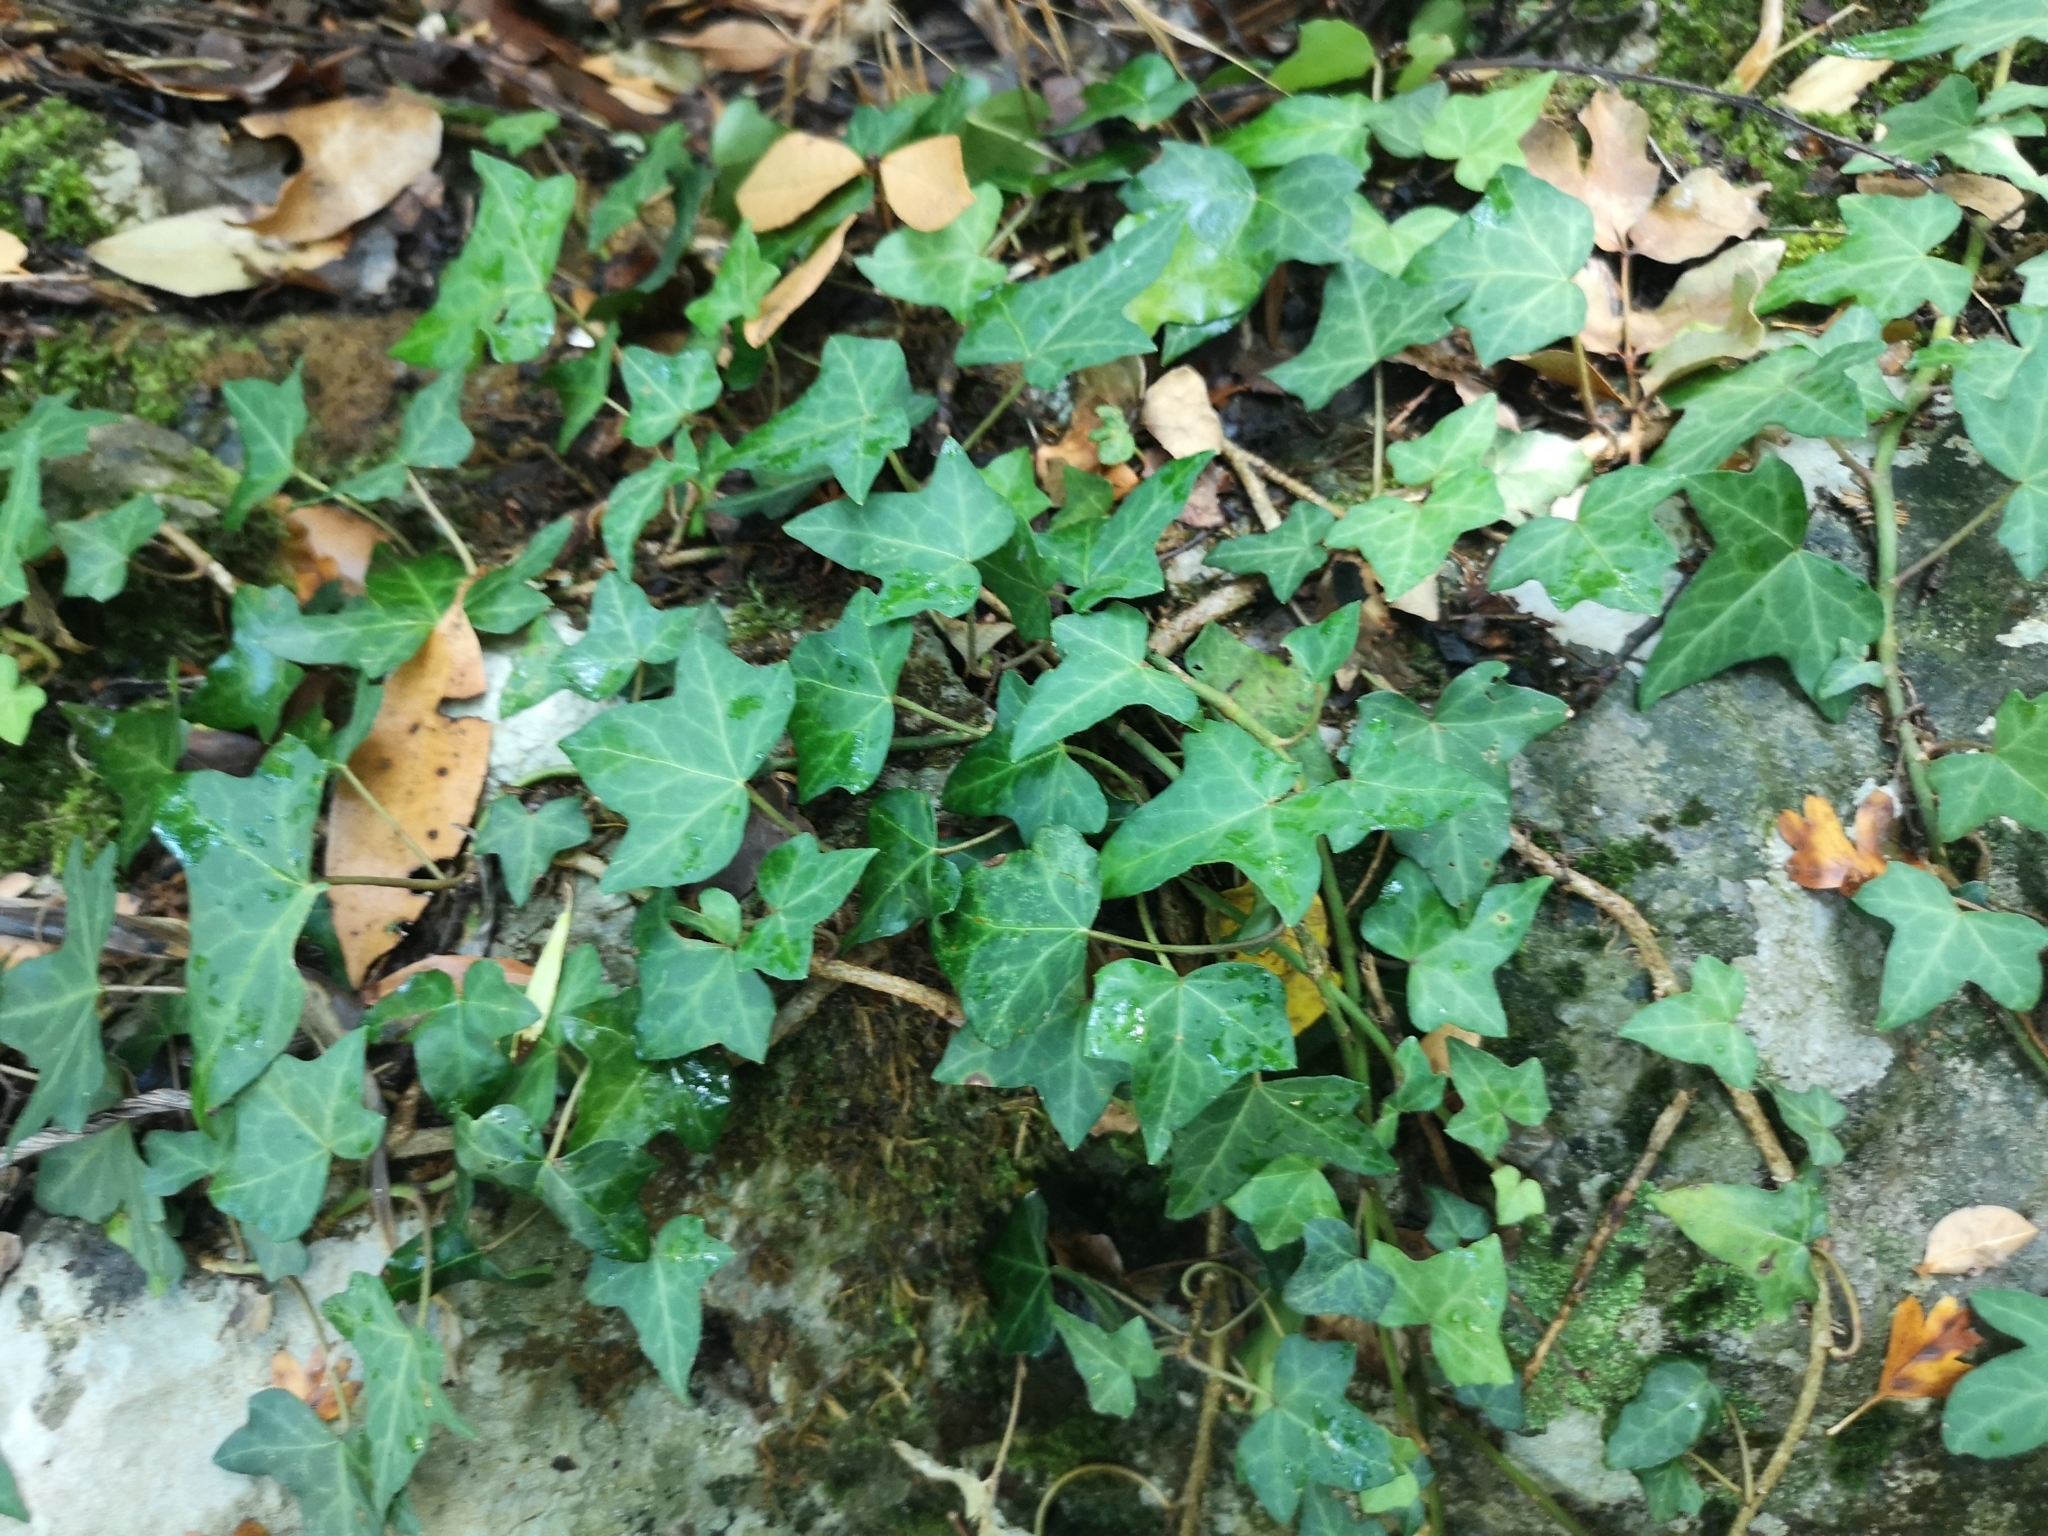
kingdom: Plantae
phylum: Tracheophyta
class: Magnoliopsida
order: Apiales
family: Araliaceae
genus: Hedera
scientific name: Hedera helix
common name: Ivy
